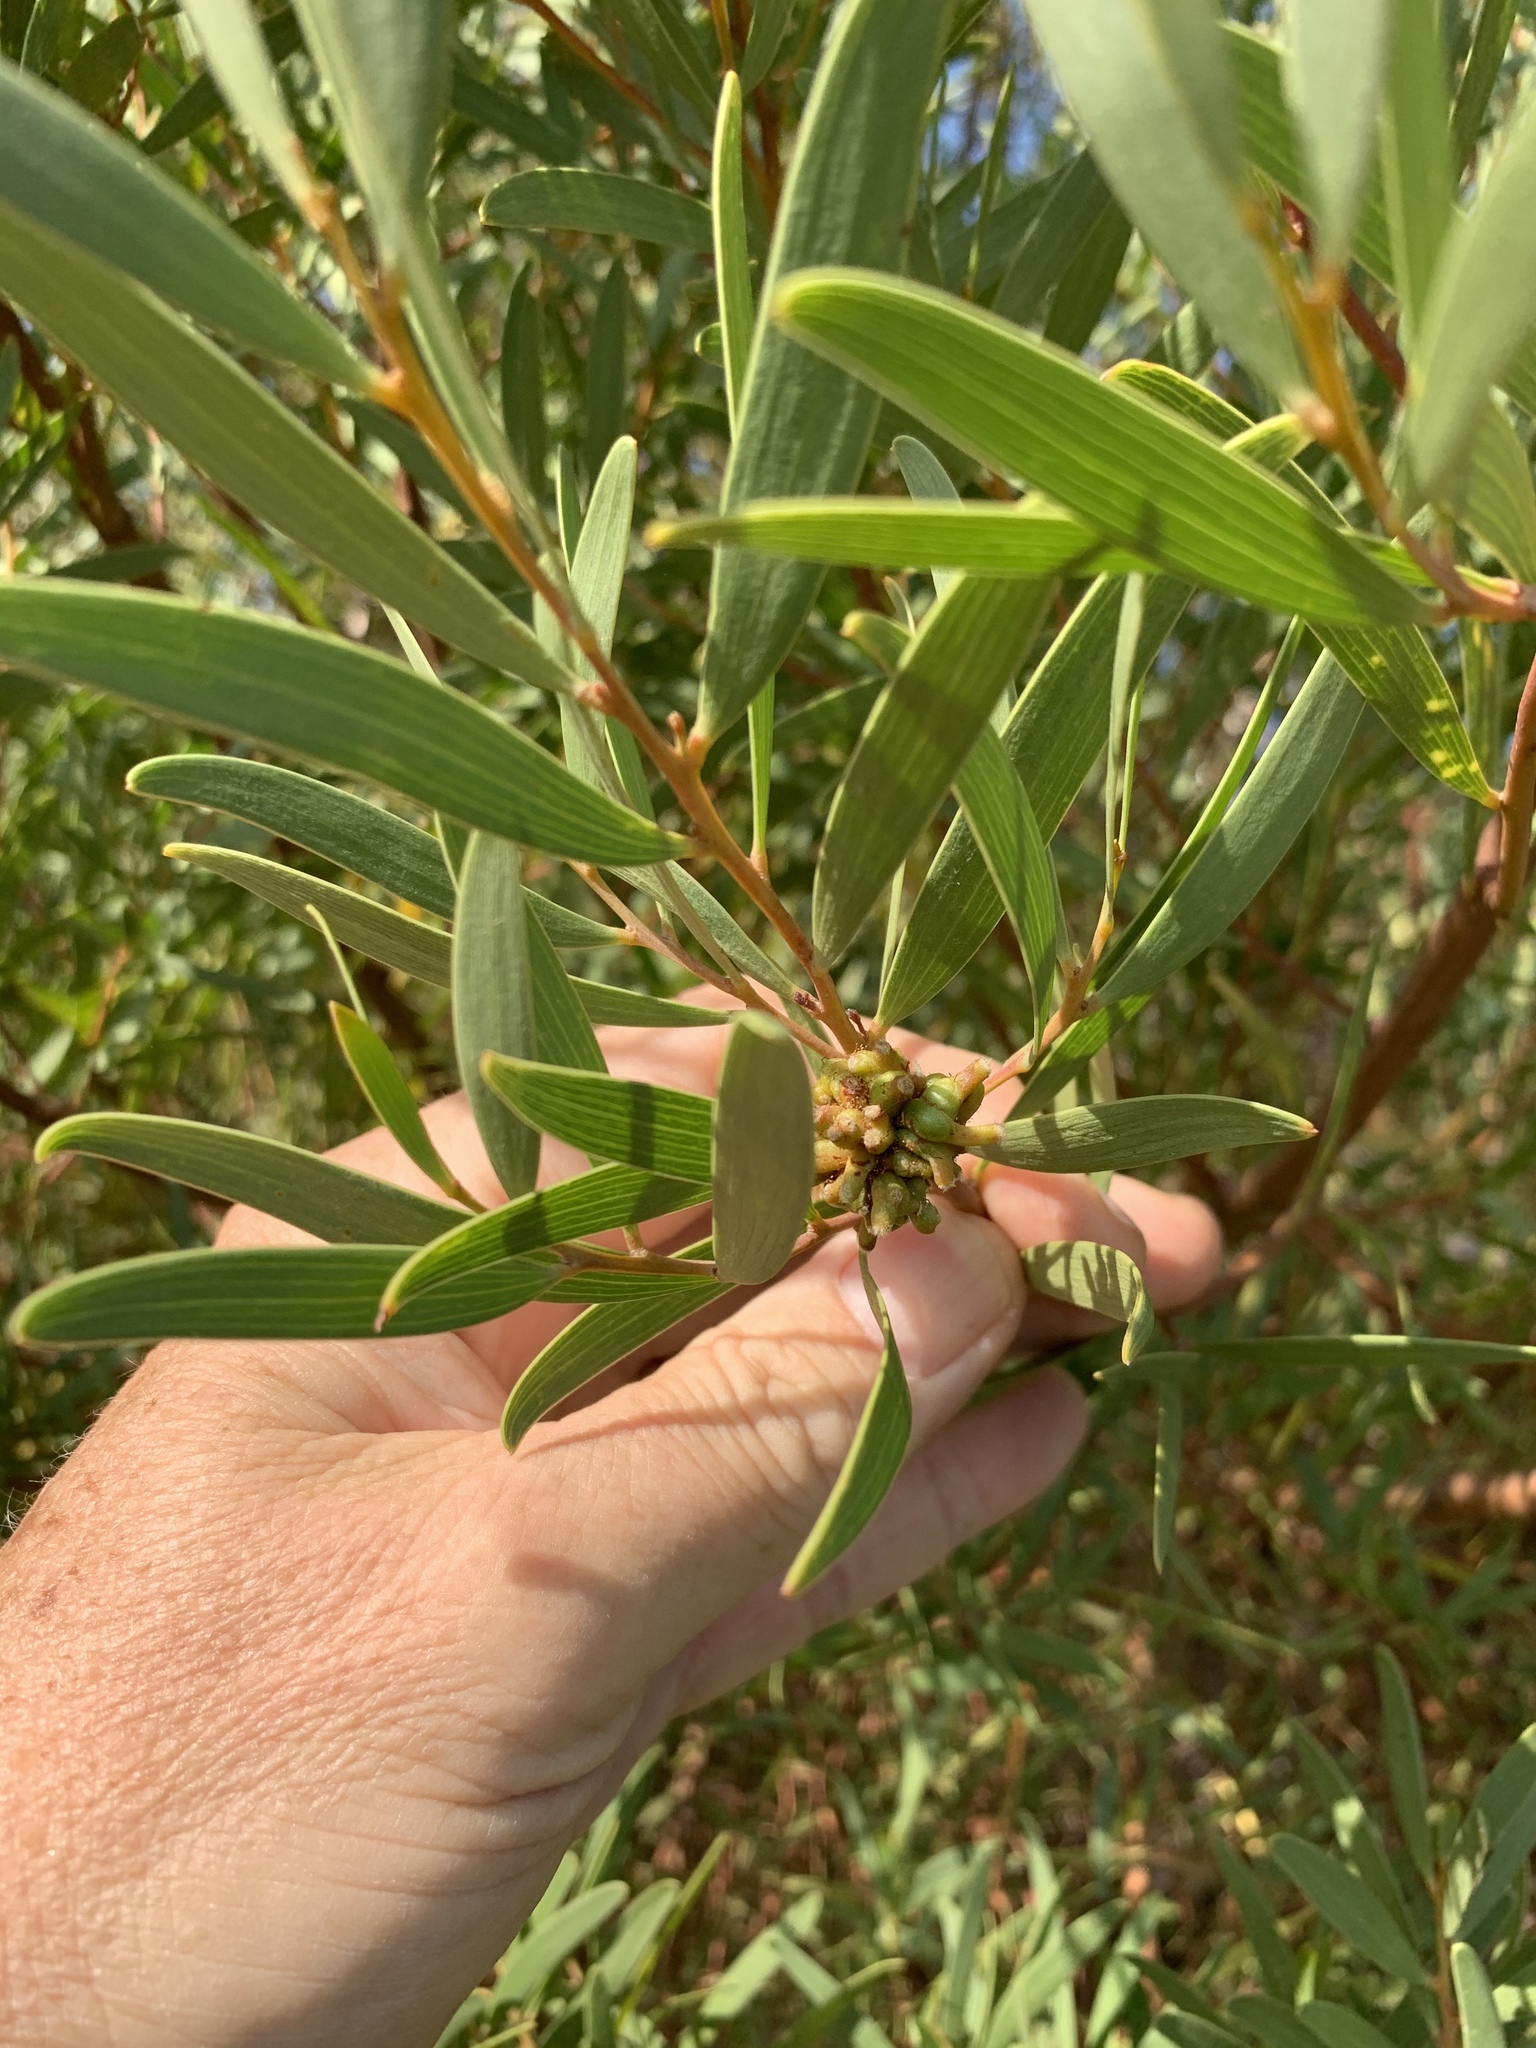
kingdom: Plantae
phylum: Tracheophyta
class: Magnoliopsida
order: Fabales
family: Fabaceae
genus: Acacia
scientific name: Acacia cyclops
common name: Coastal wattle
